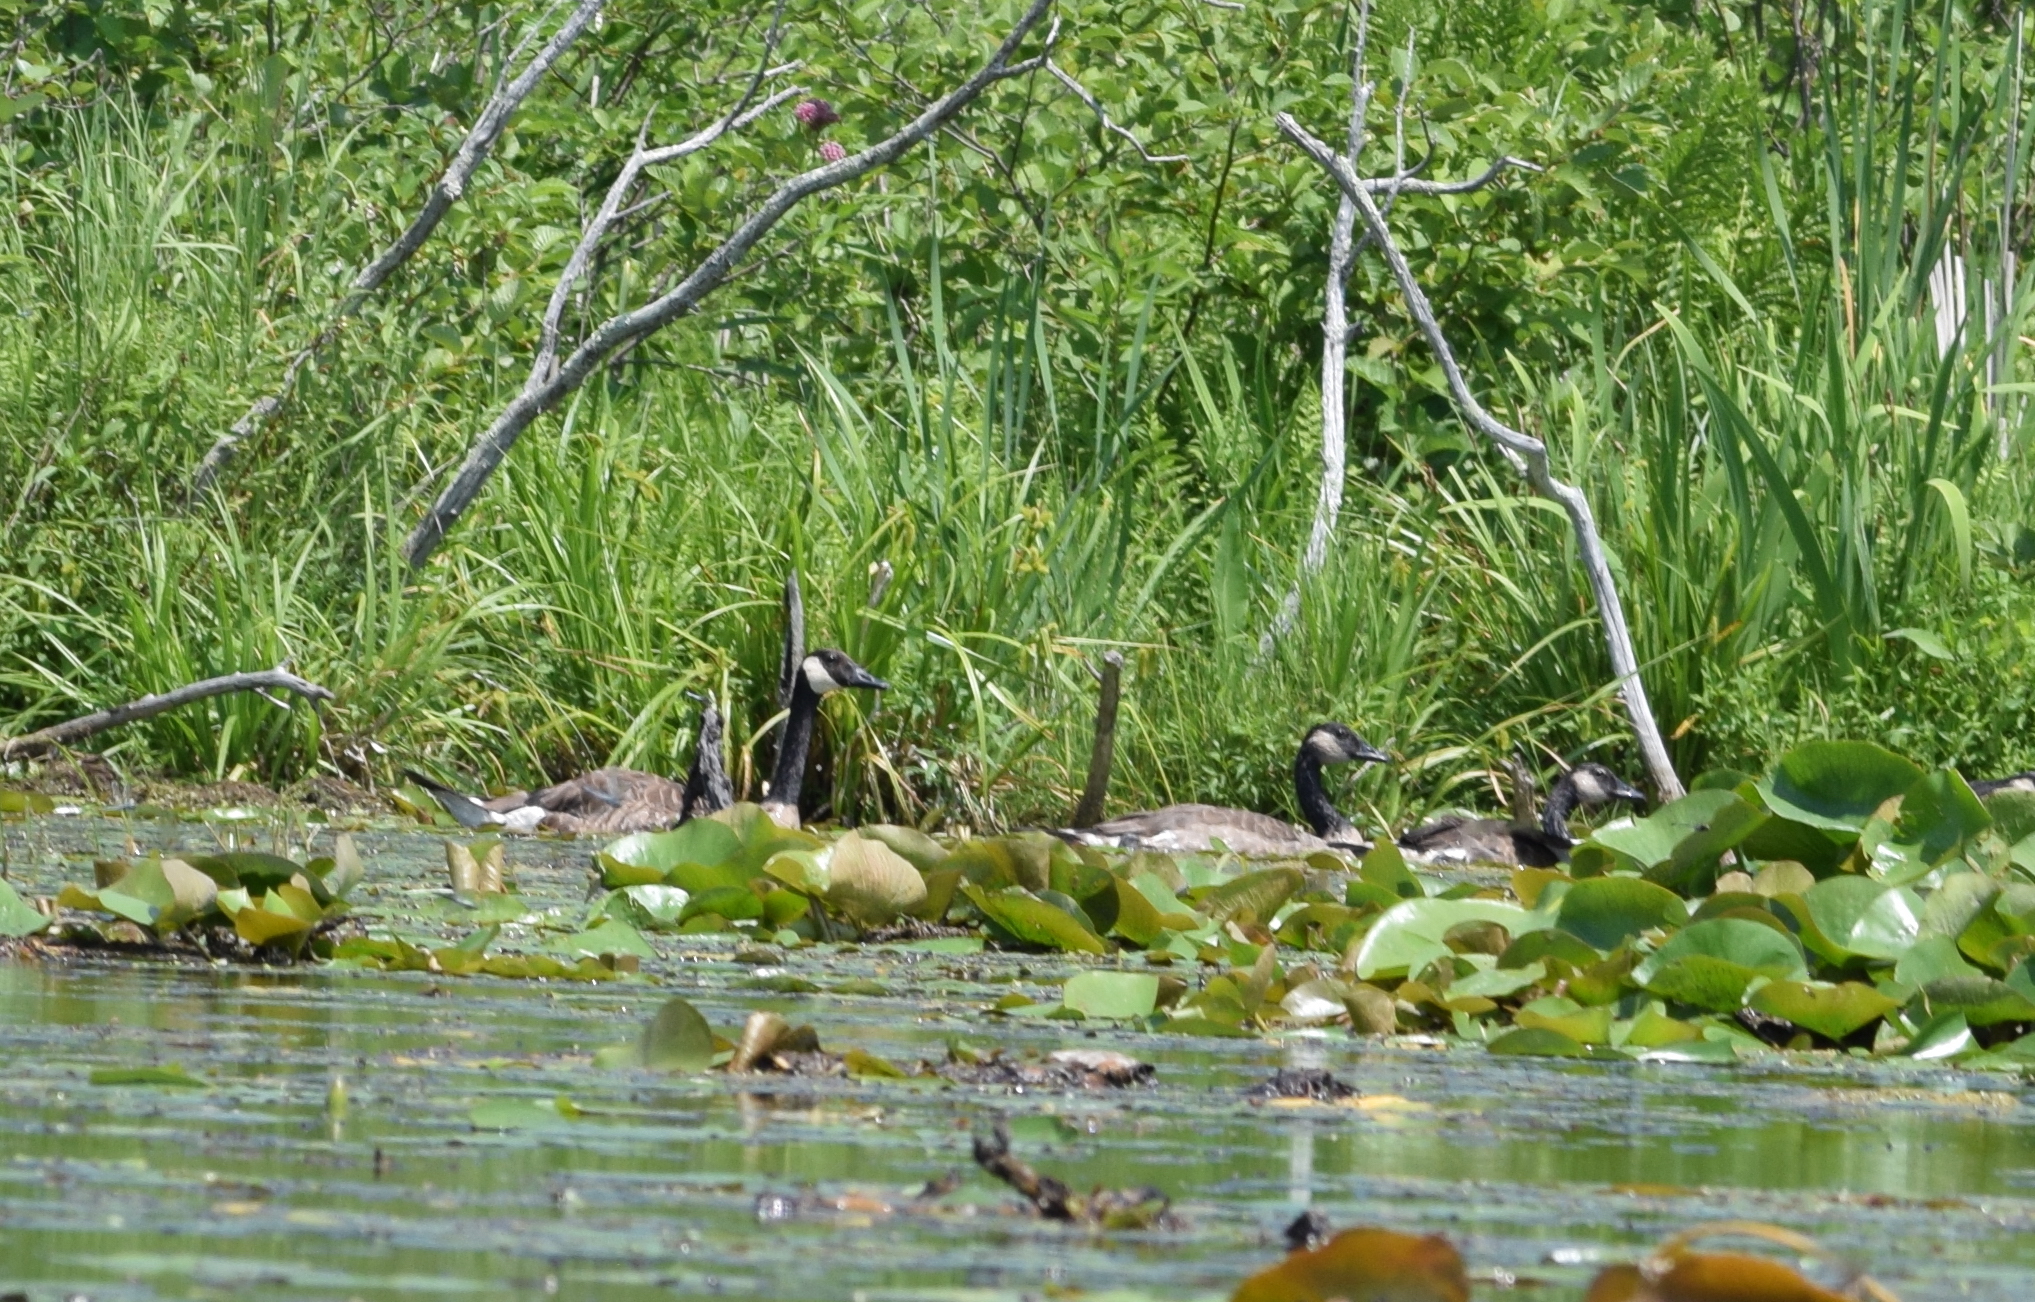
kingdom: Animalia
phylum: Chordata
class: Aves
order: Anseriformes
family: Anatidae
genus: Branta
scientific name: Branta canadensis
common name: Canada goose
